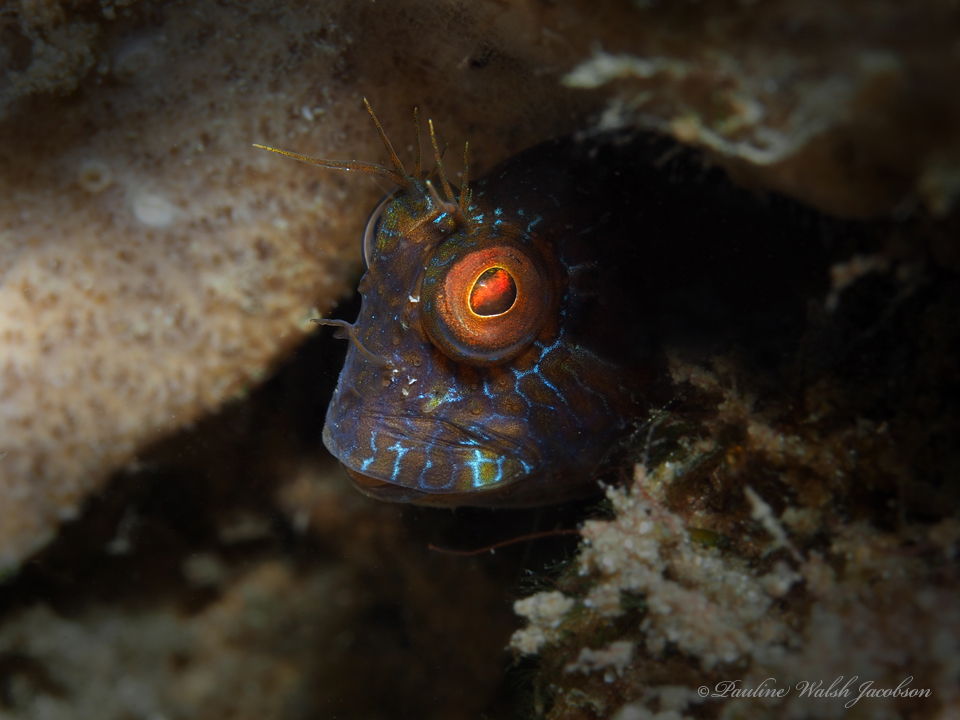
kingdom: Animalia
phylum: Chordata
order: Perciformes
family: Blenniidae
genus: Parablennius
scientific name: Parablennius marmoreus
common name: Seaweed blenny
